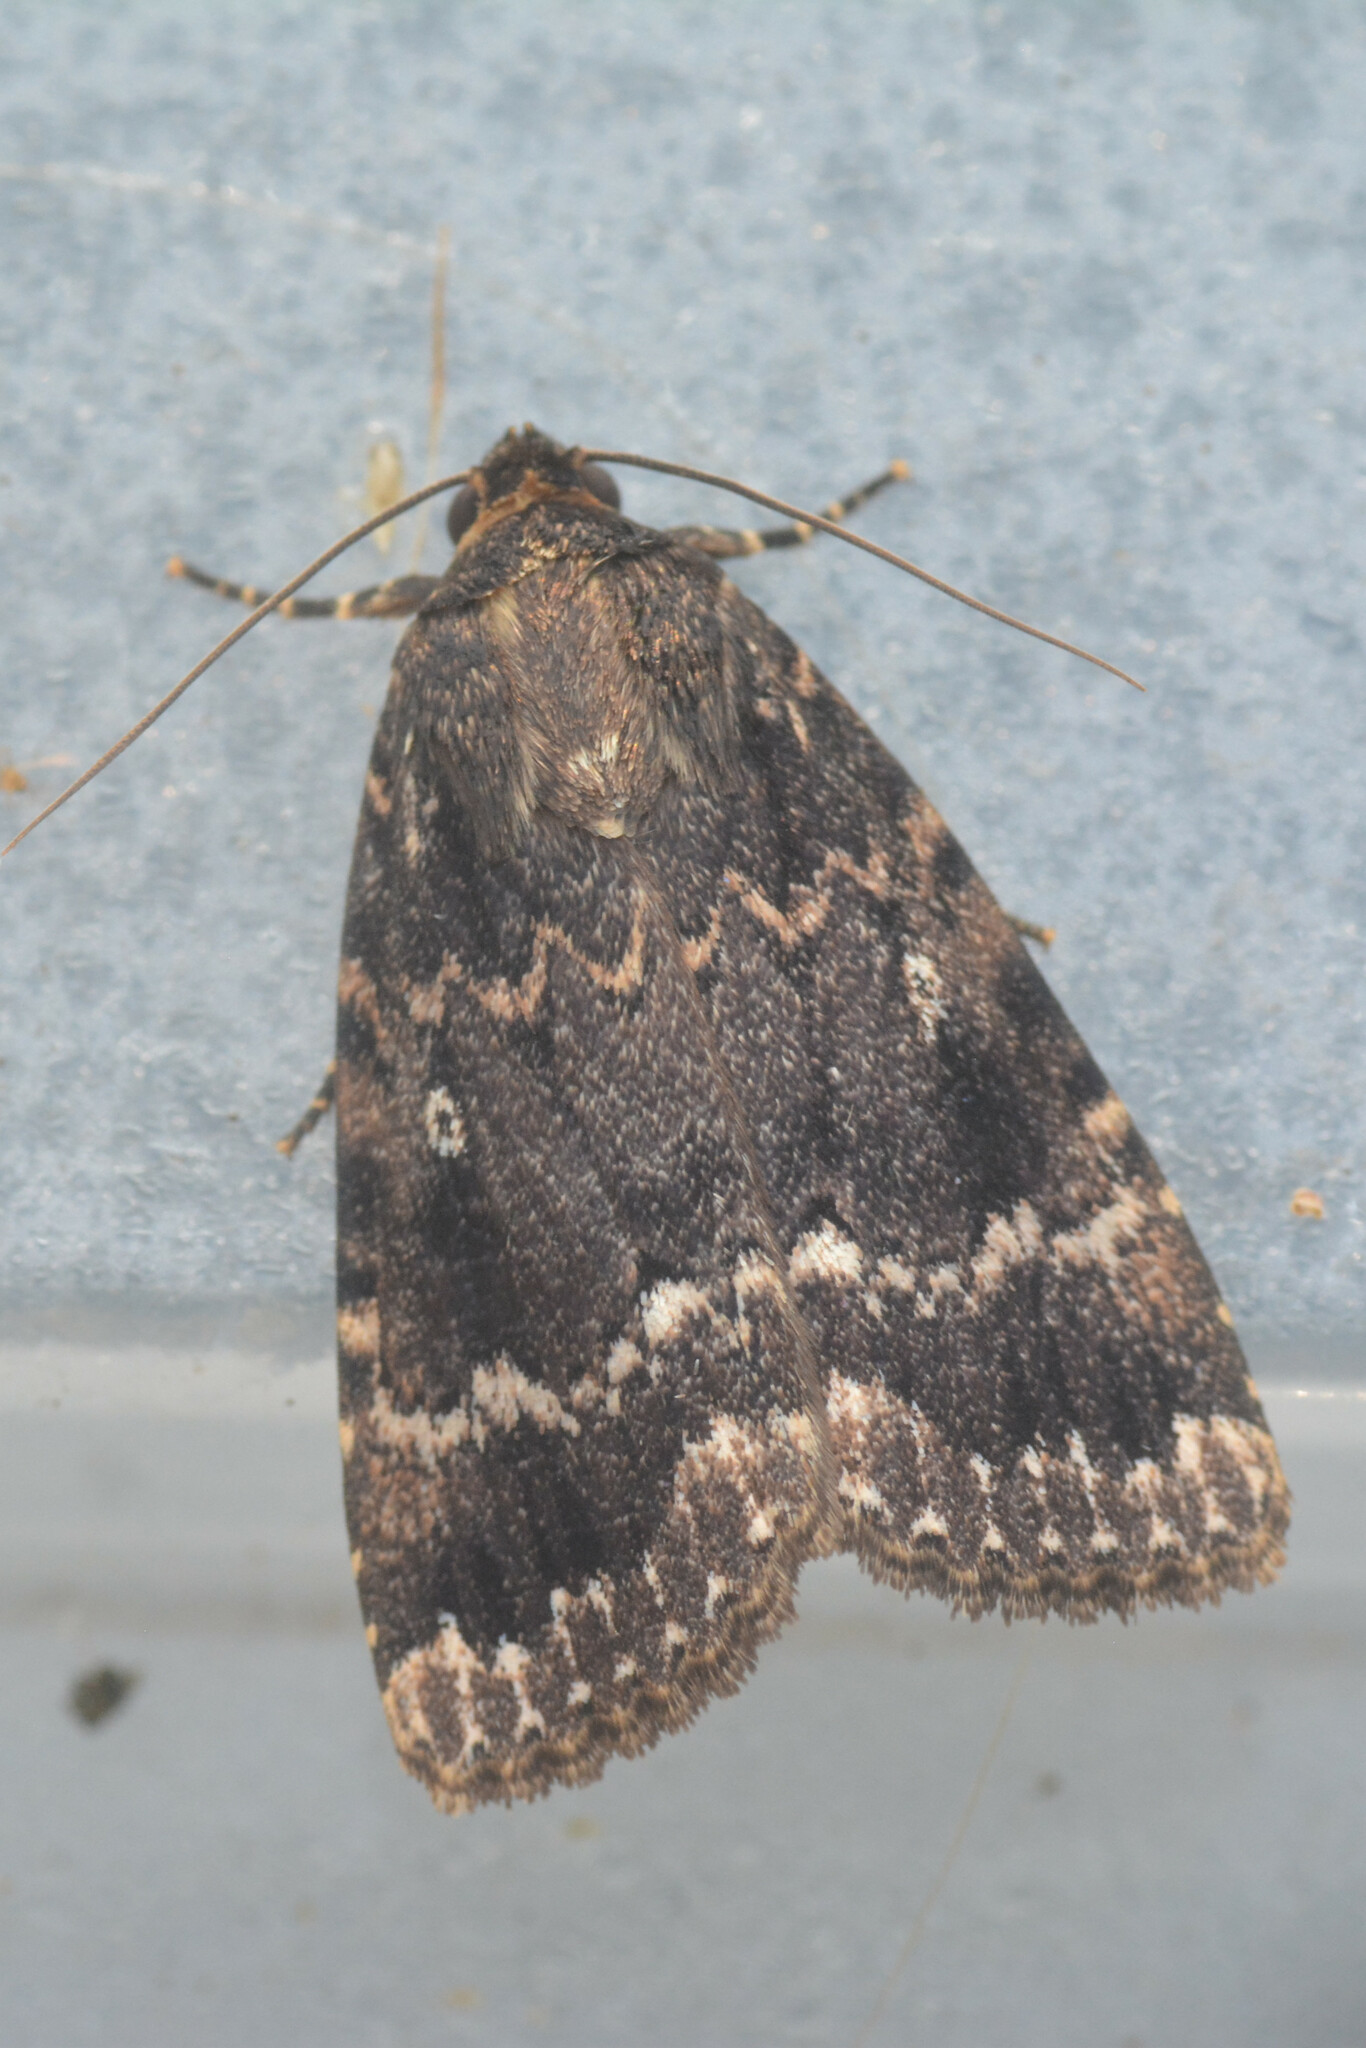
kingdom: Animalia
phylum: Arthropoda
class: Insecta
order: Lepidoptera
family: Noctuidae
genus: Amphipyra
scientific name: Amphipyra pyramidea
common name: Copper underwing
